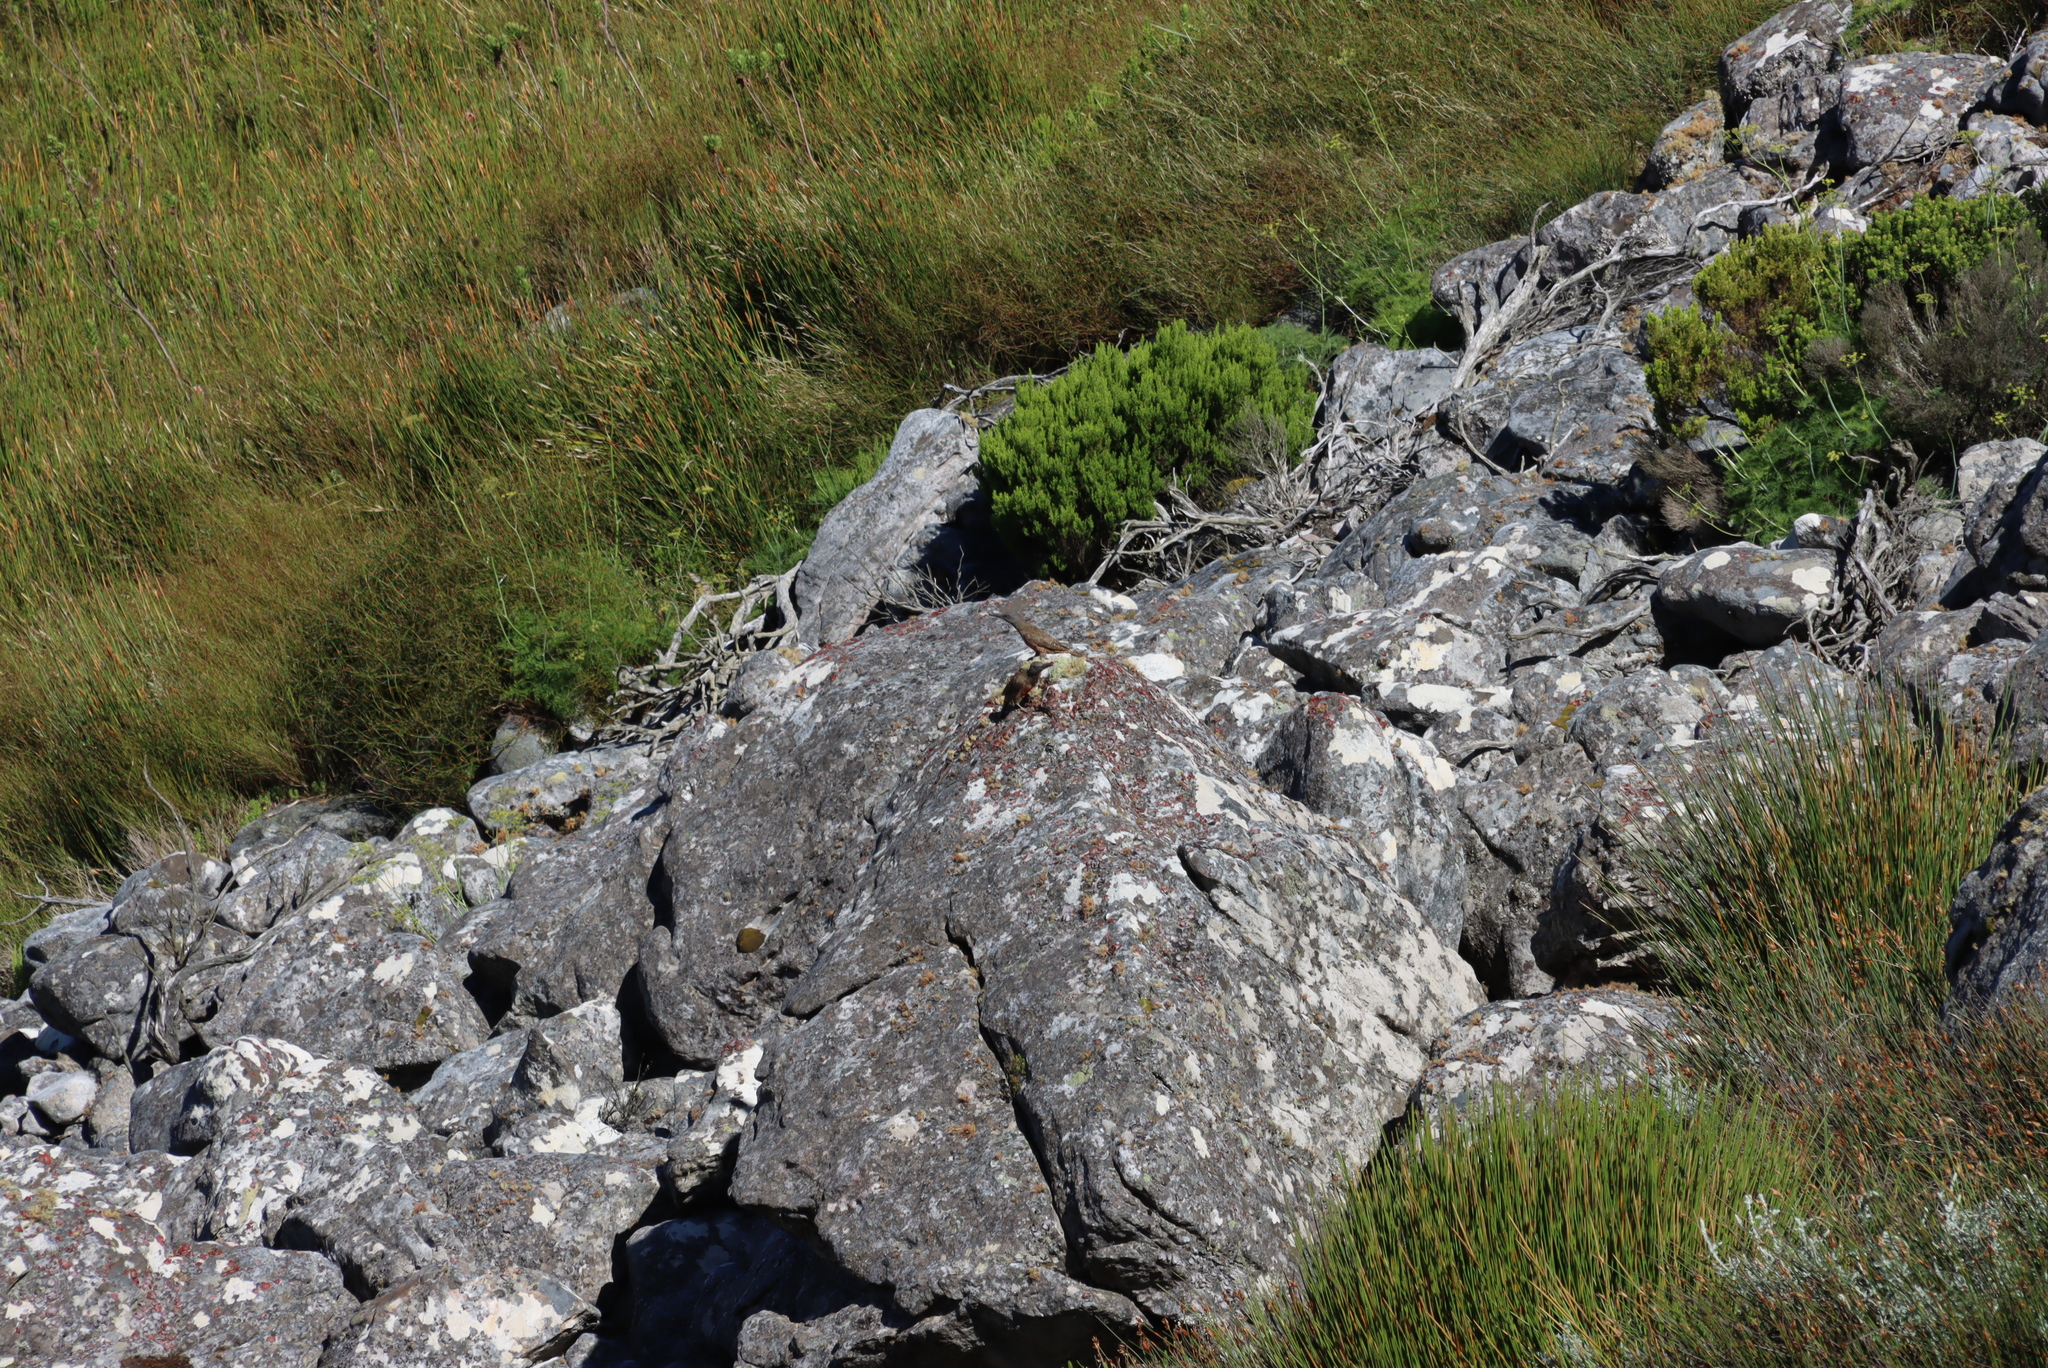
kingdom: Animalia
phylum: Chordata
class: Aves
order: Piciformes
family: Picidae
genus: Geocolaptes
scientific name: Geocolaptes olivaceus
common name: Ground woodpecker
